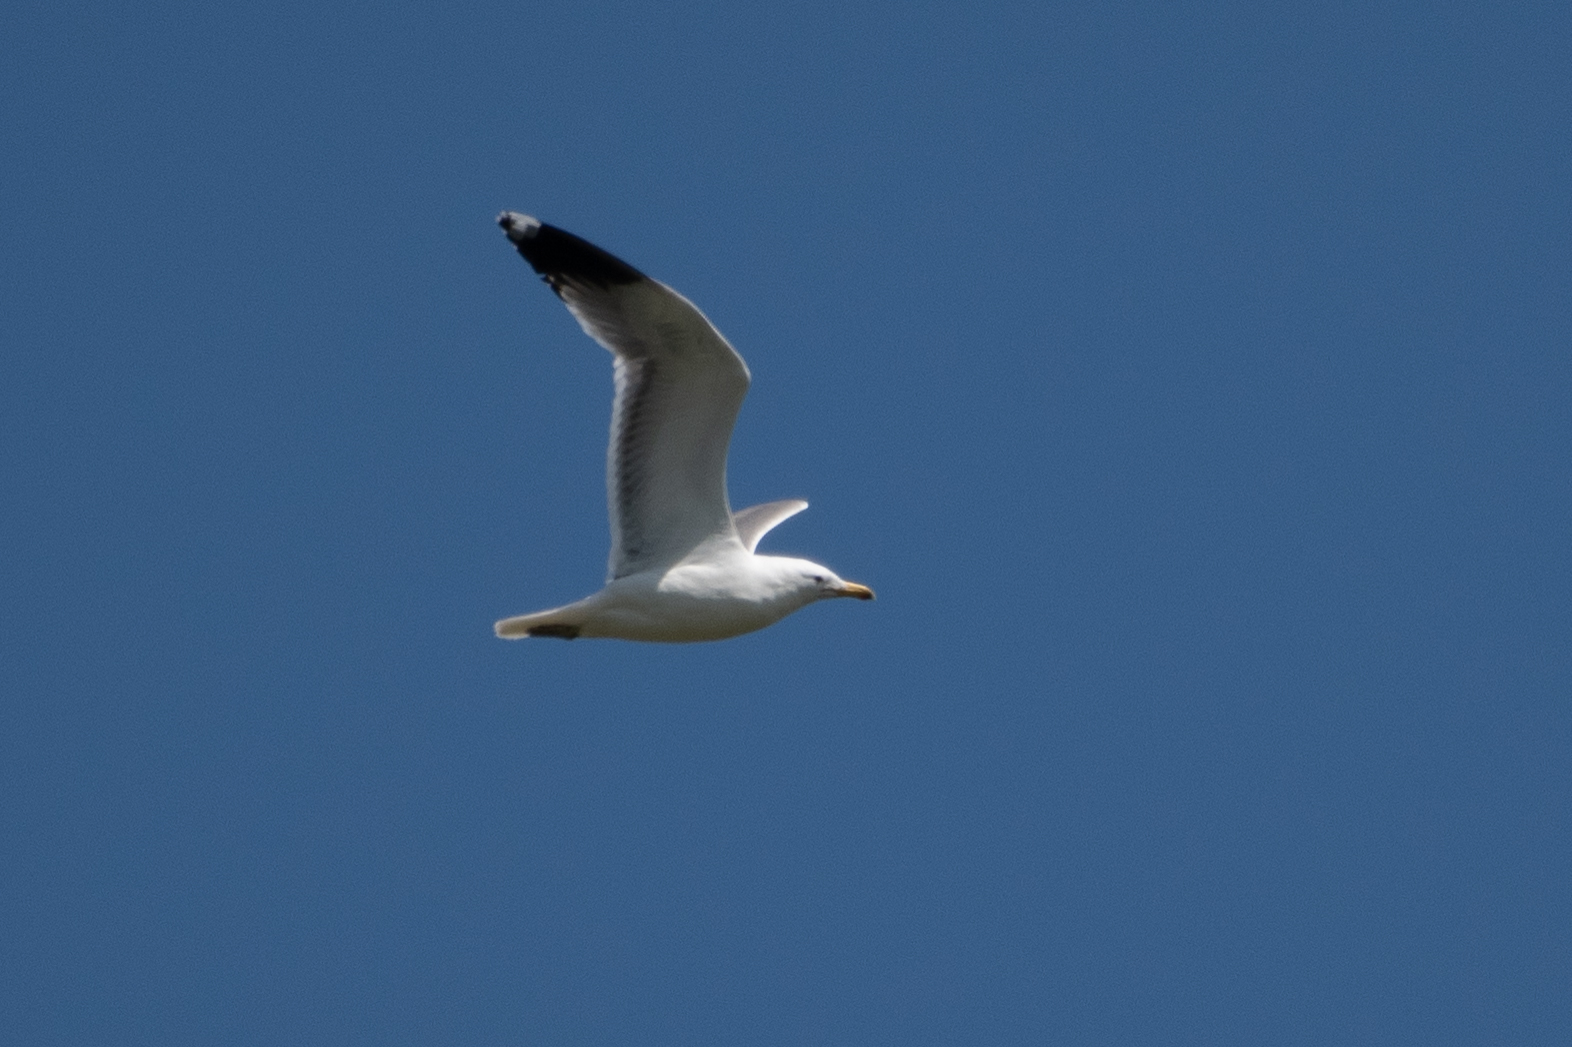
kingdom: Animalia
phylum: Chordata
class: Aves
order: Charadriiformes
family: Laridae
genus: Larus
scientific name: Larus californicus
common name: California gull
